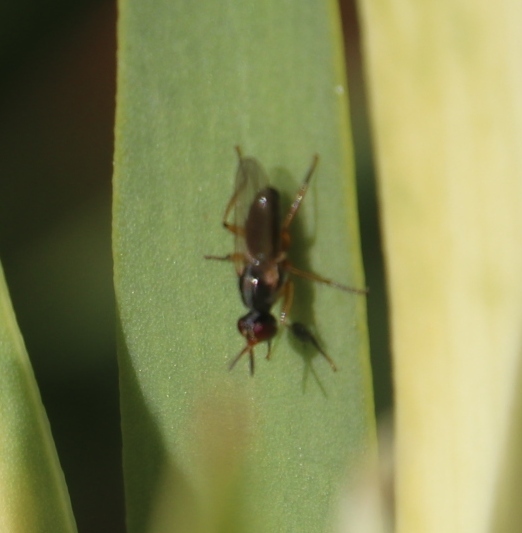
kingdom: Animalia
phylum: Arthropoda
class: Insecta
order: Diptera
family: Muscidae
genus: Anaphalantus
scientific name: Anaphalantus longicornis
